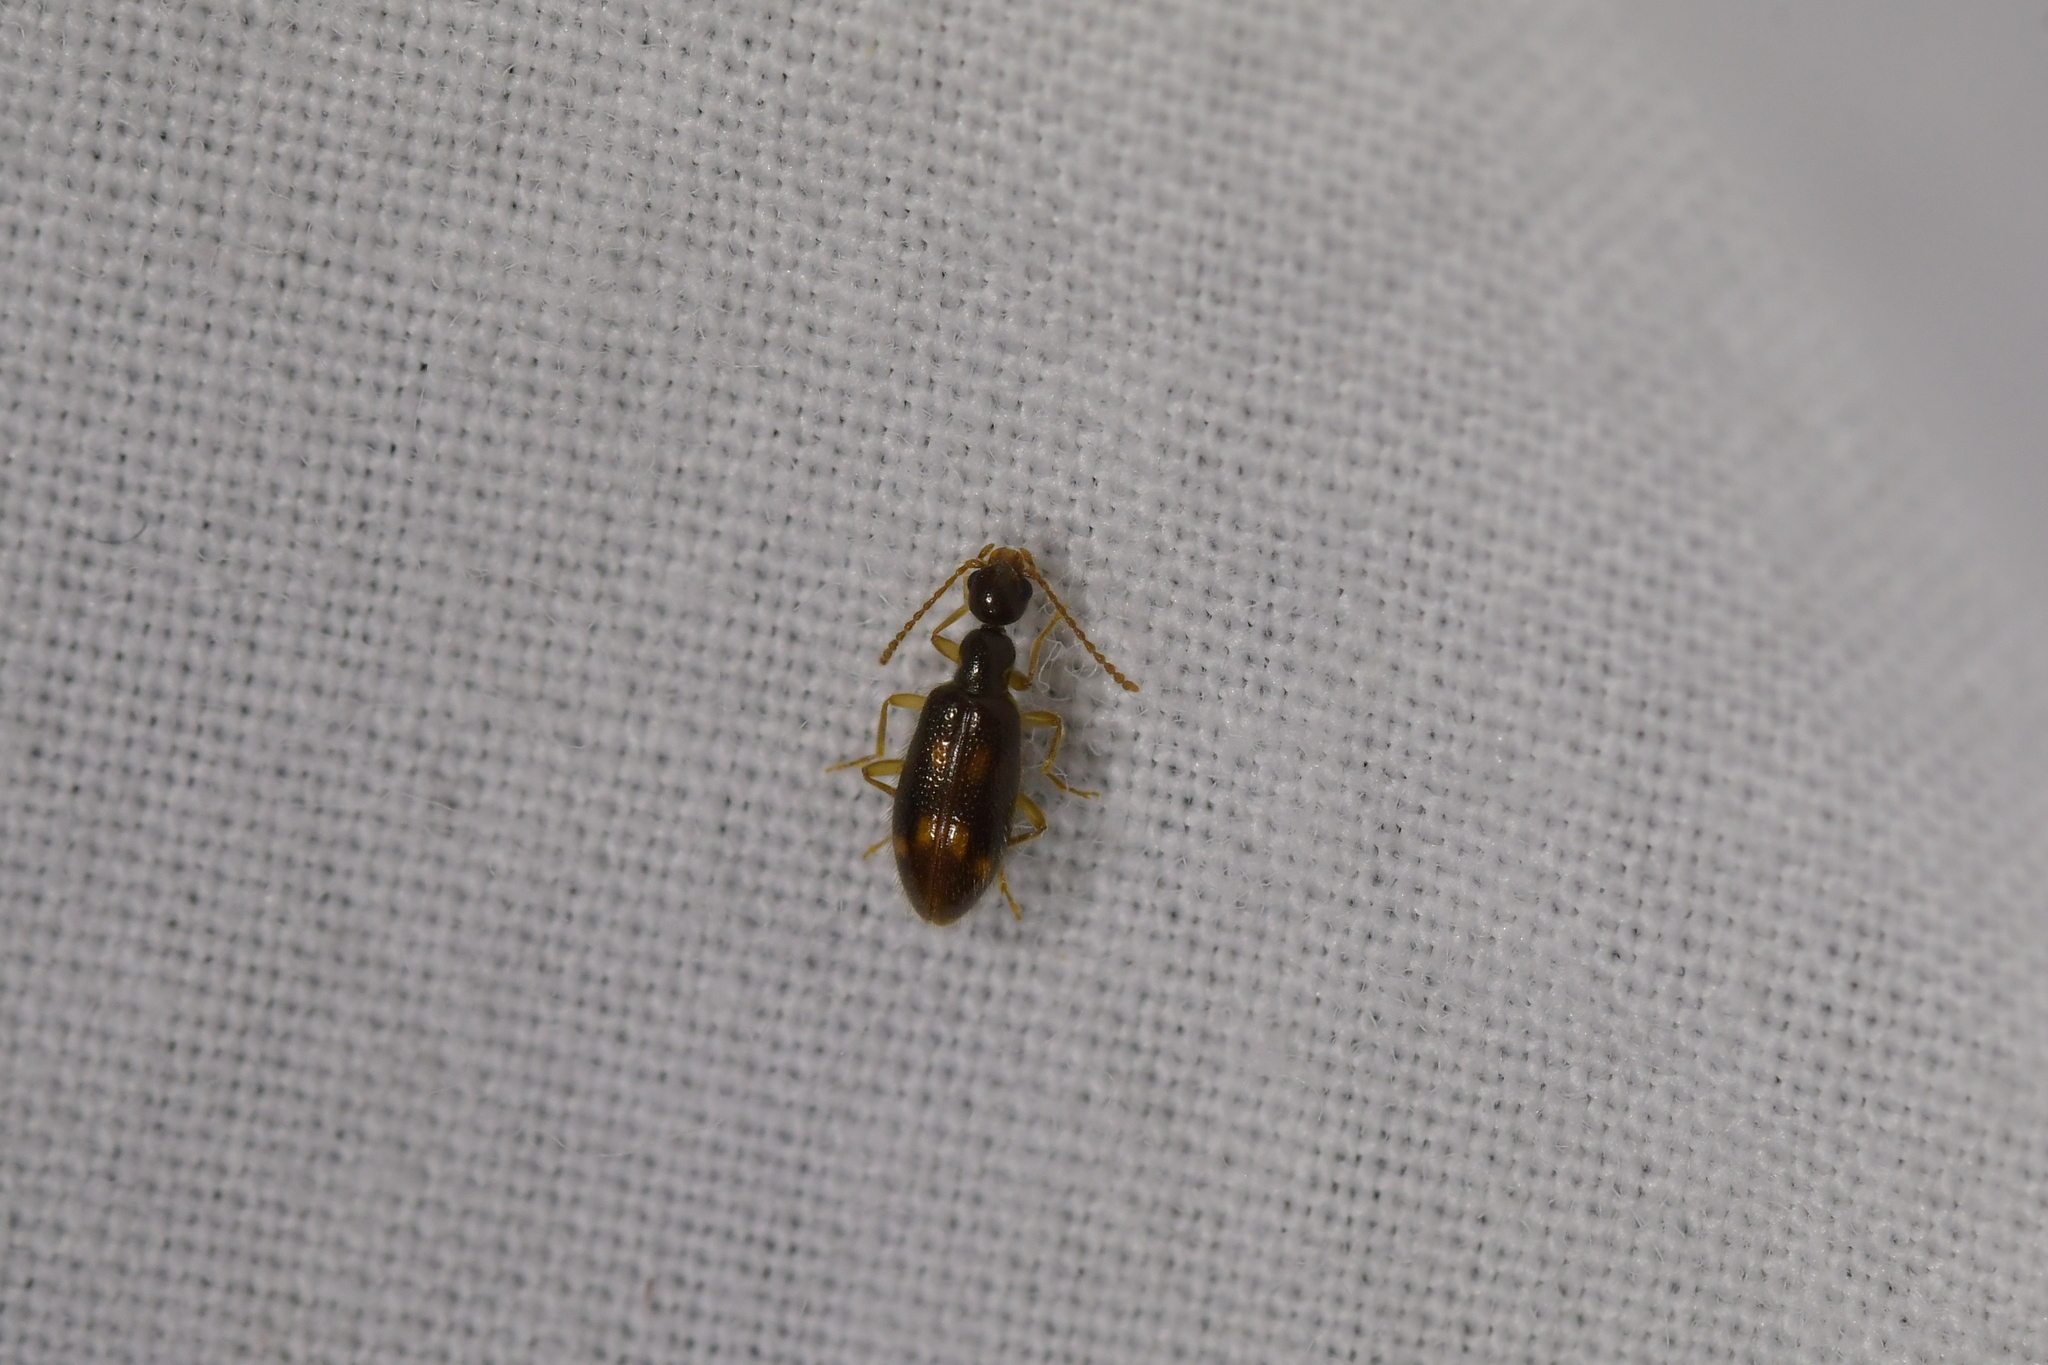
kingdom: Animalia
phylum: Arthropoda
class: Insecta
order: Coleoptera
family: Anthicidae
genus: Sapintus
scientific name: Sapintus pellucidipes
